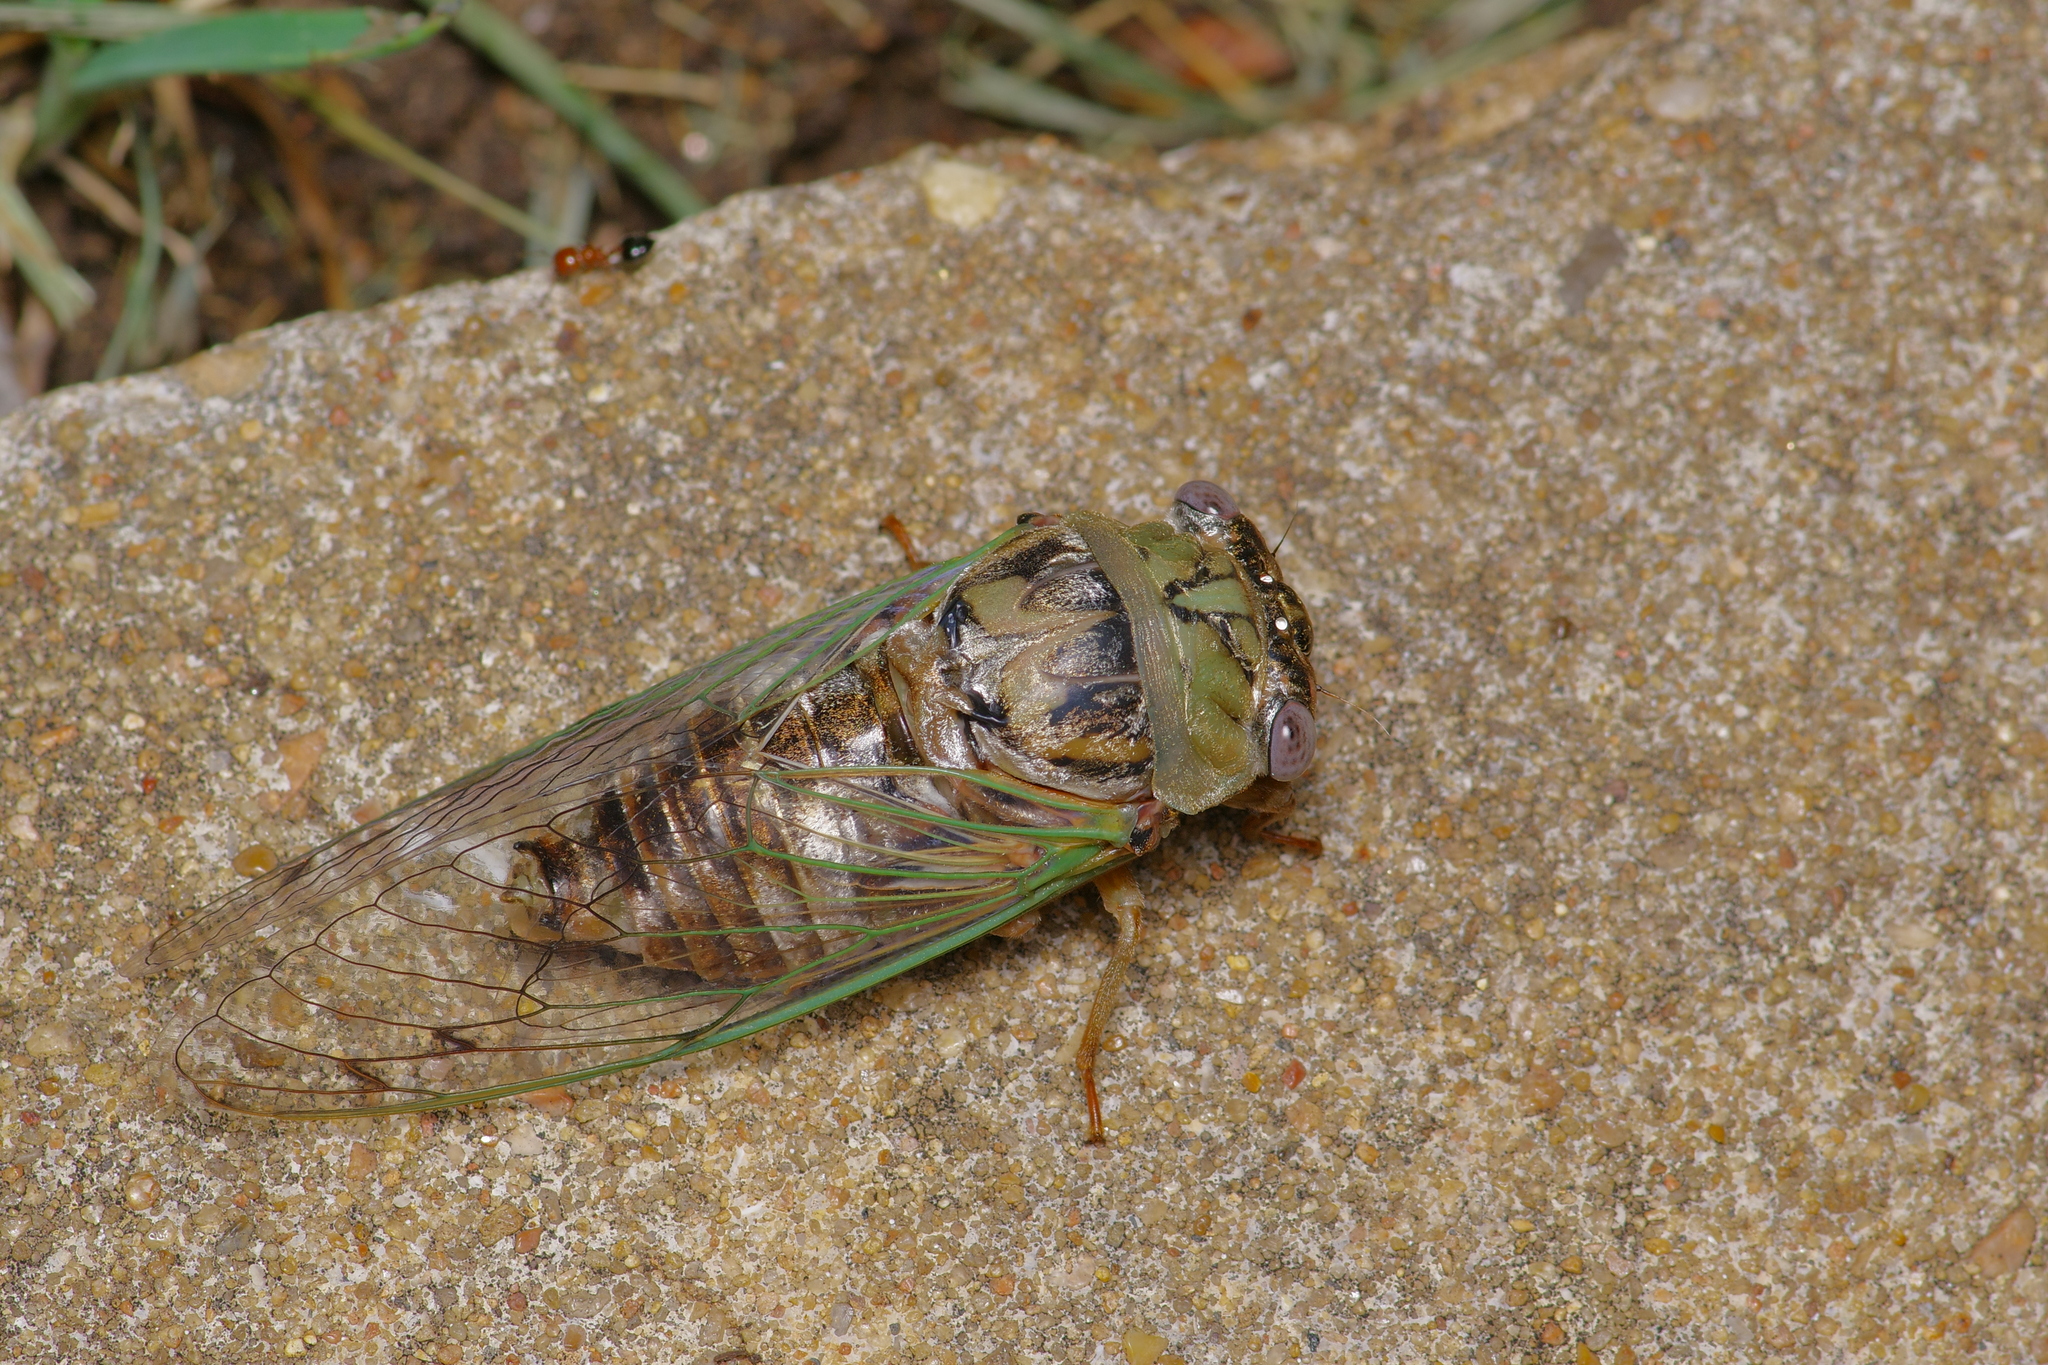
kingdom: Animalia
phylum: Arthropoda
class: Insecta
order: Hemiptera
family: Cicadidae
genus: Megatibicen
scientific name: Megatibicen resh
